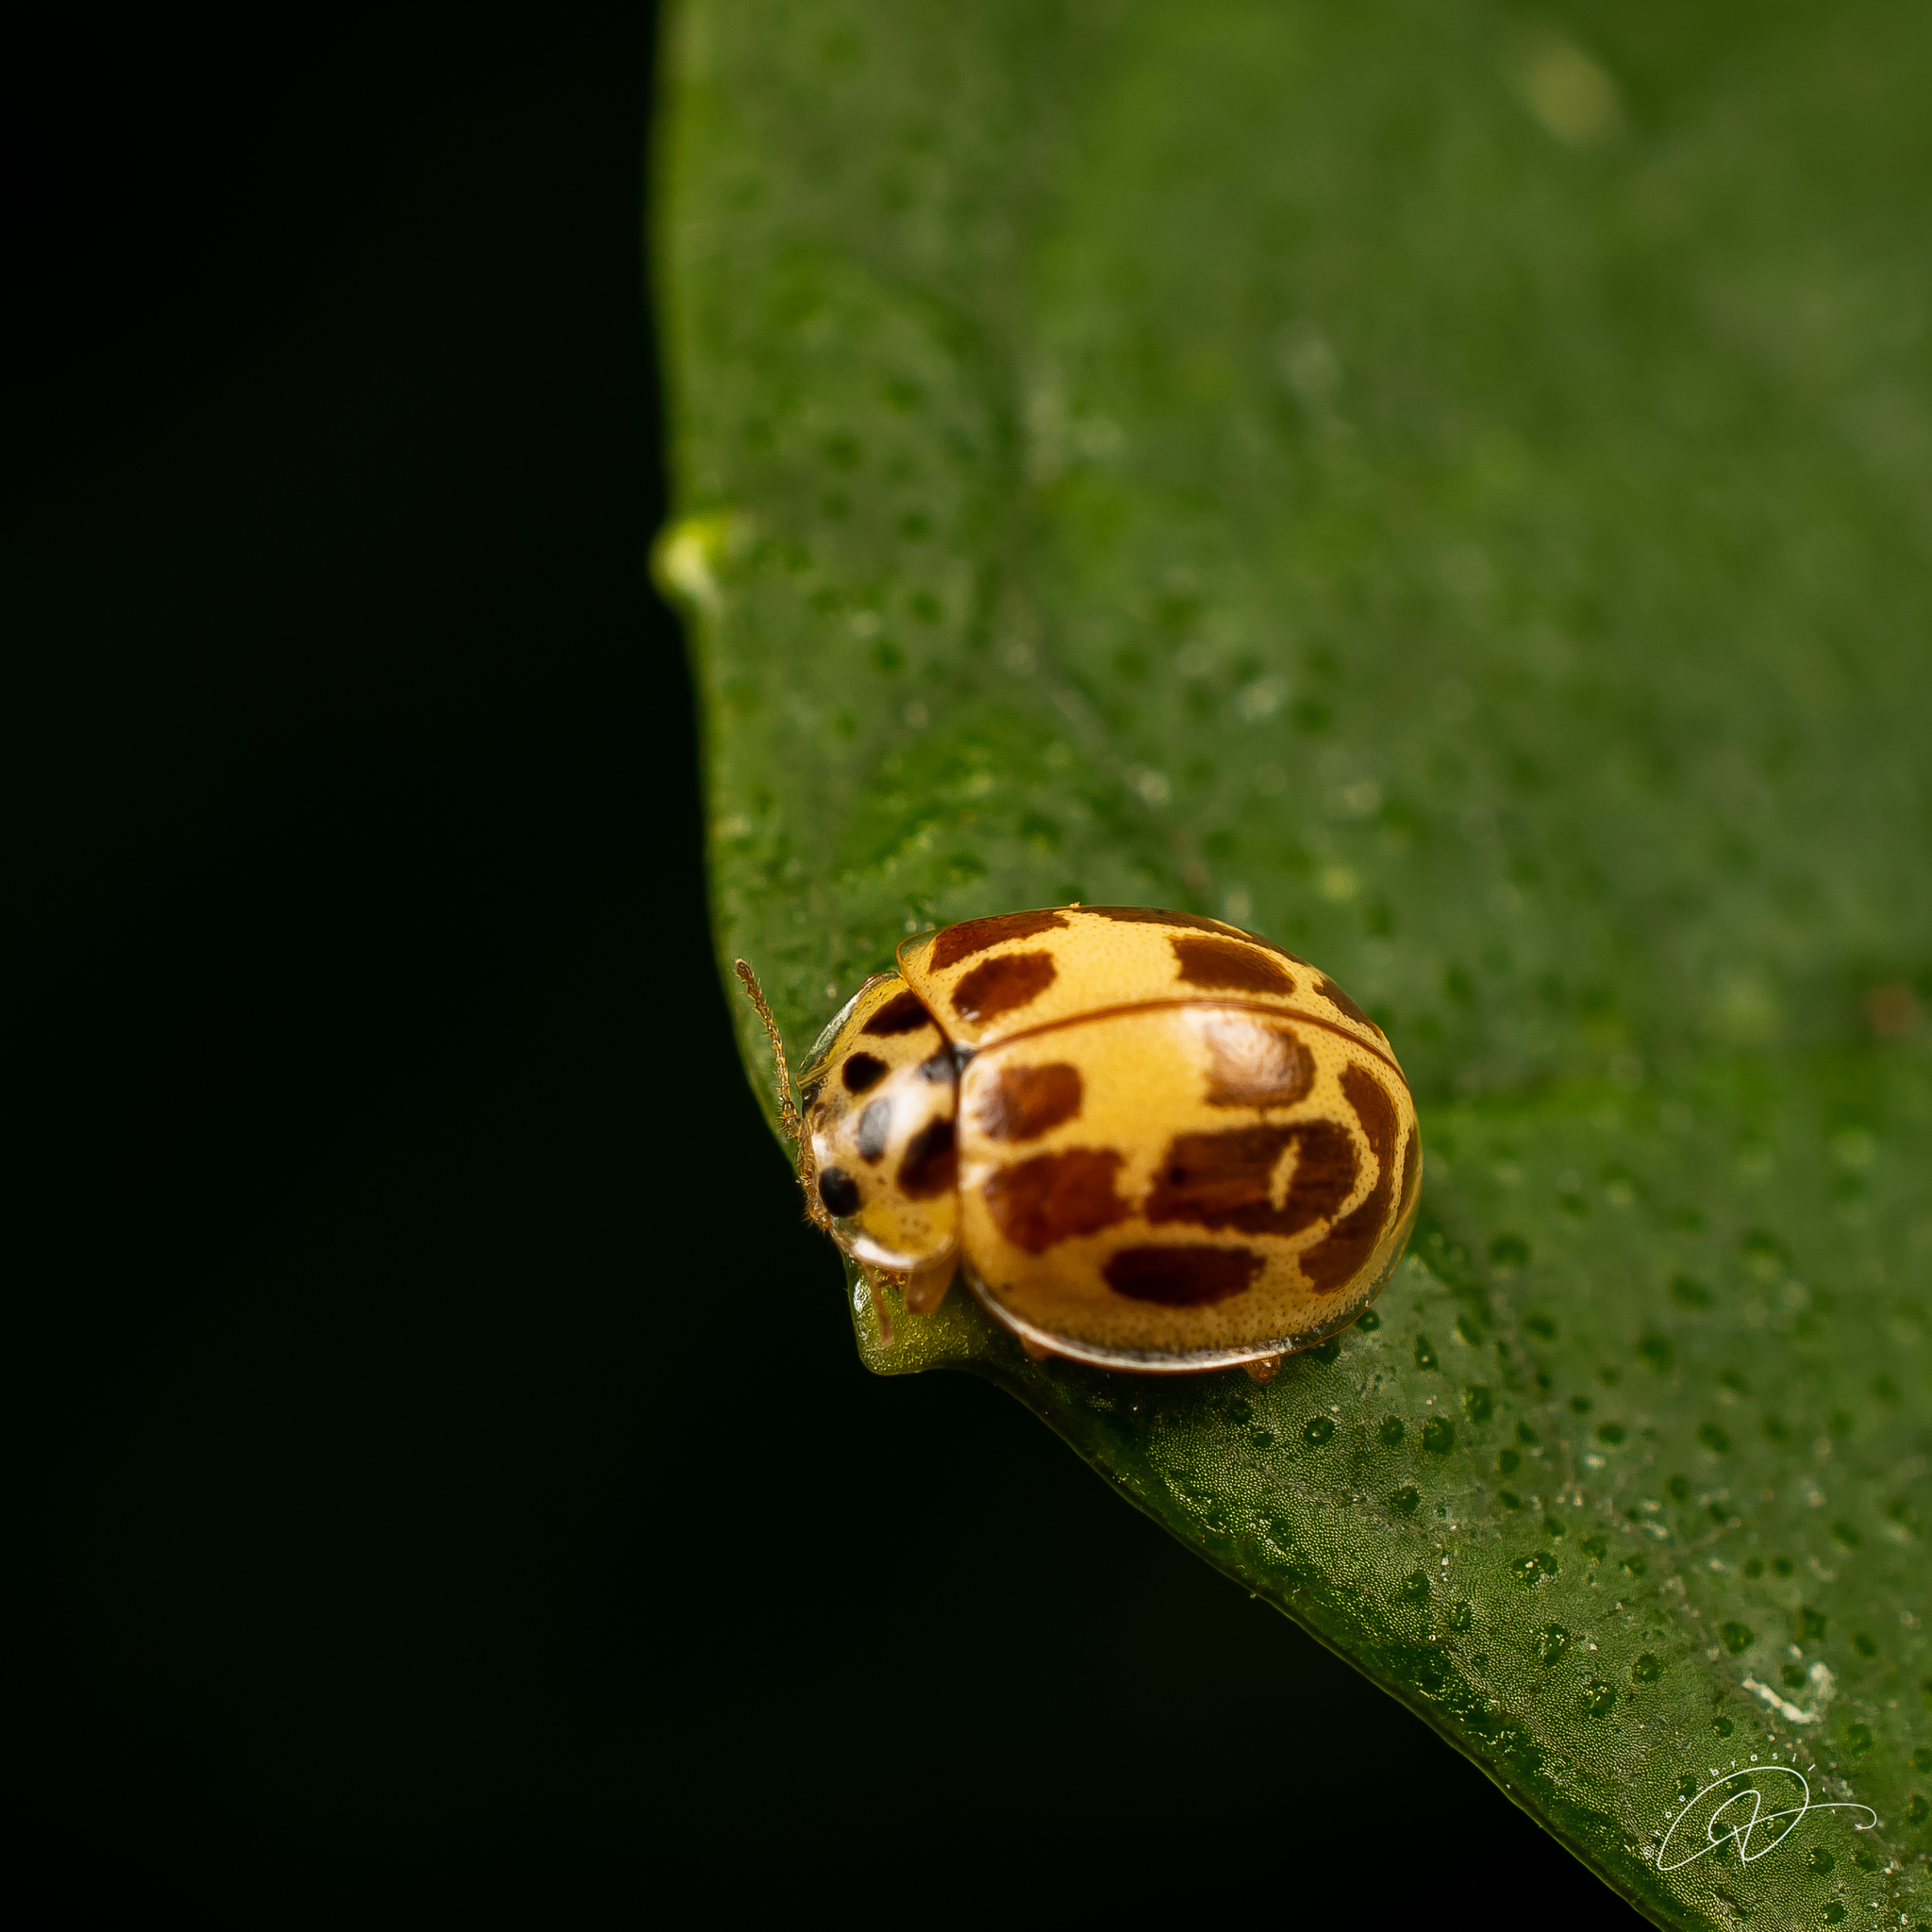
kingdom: Animalia
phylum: Arthropoda
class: Insecta
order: Coleoptera
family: Coccinellidae
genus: Psyllobora
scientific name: Psyllobora confluens
